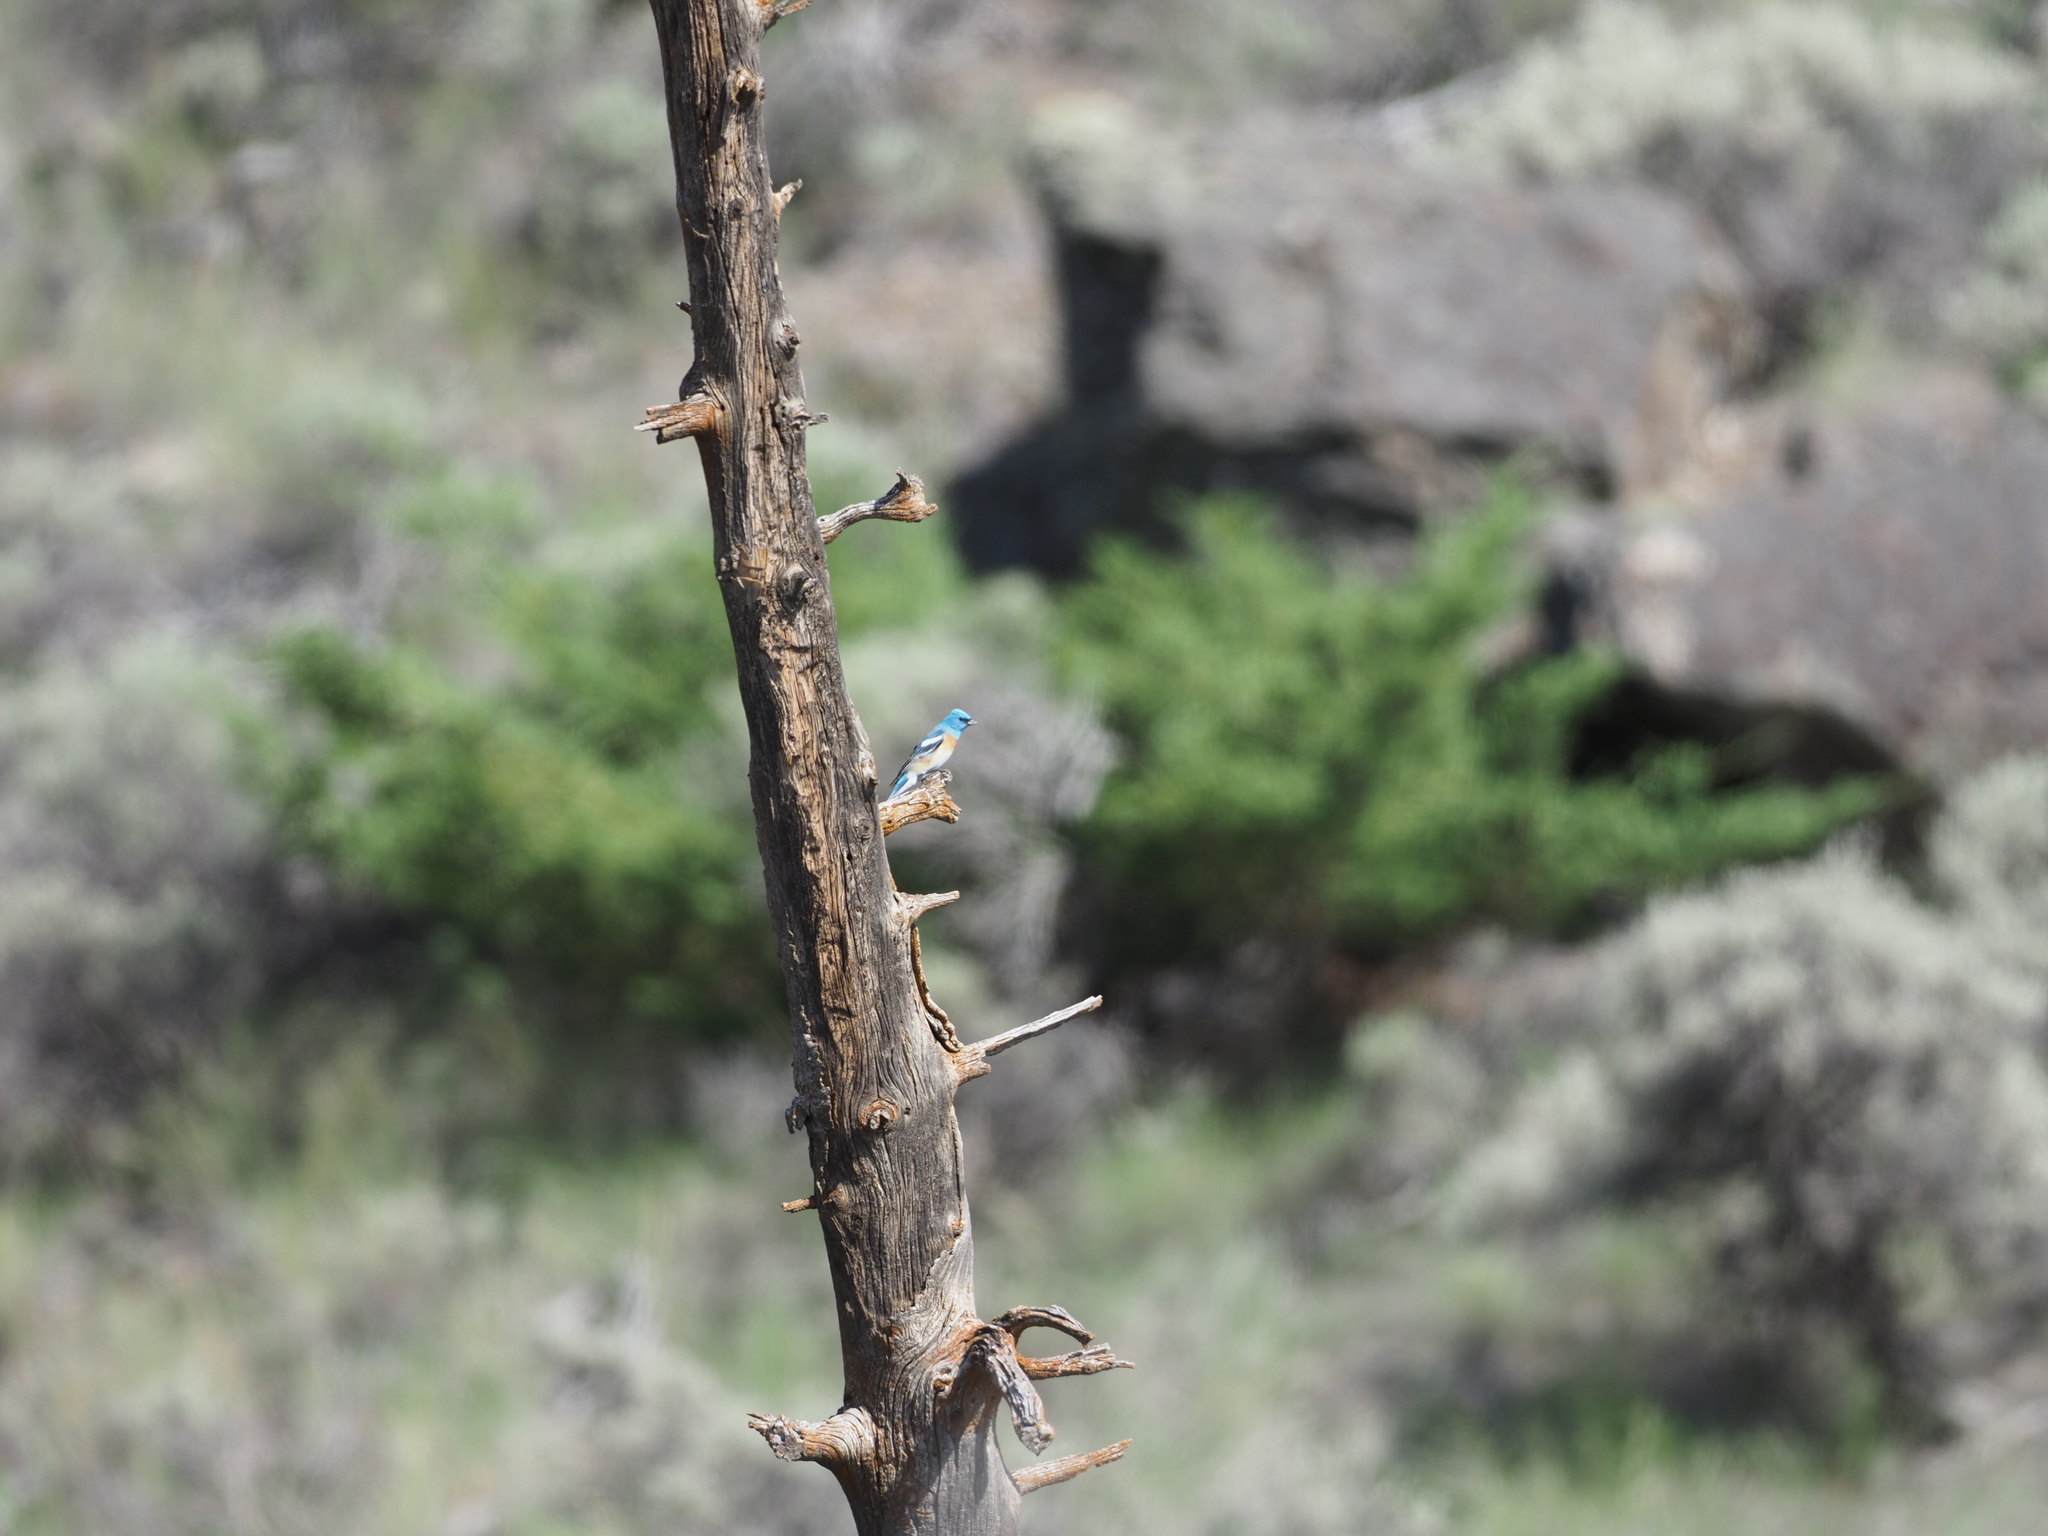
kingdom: Animalia
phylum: Chordata
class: Aves
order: Passeriformes
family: Cardinalidae
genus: Passerina
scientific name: Passerina amoena
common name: Lazuli bunting
